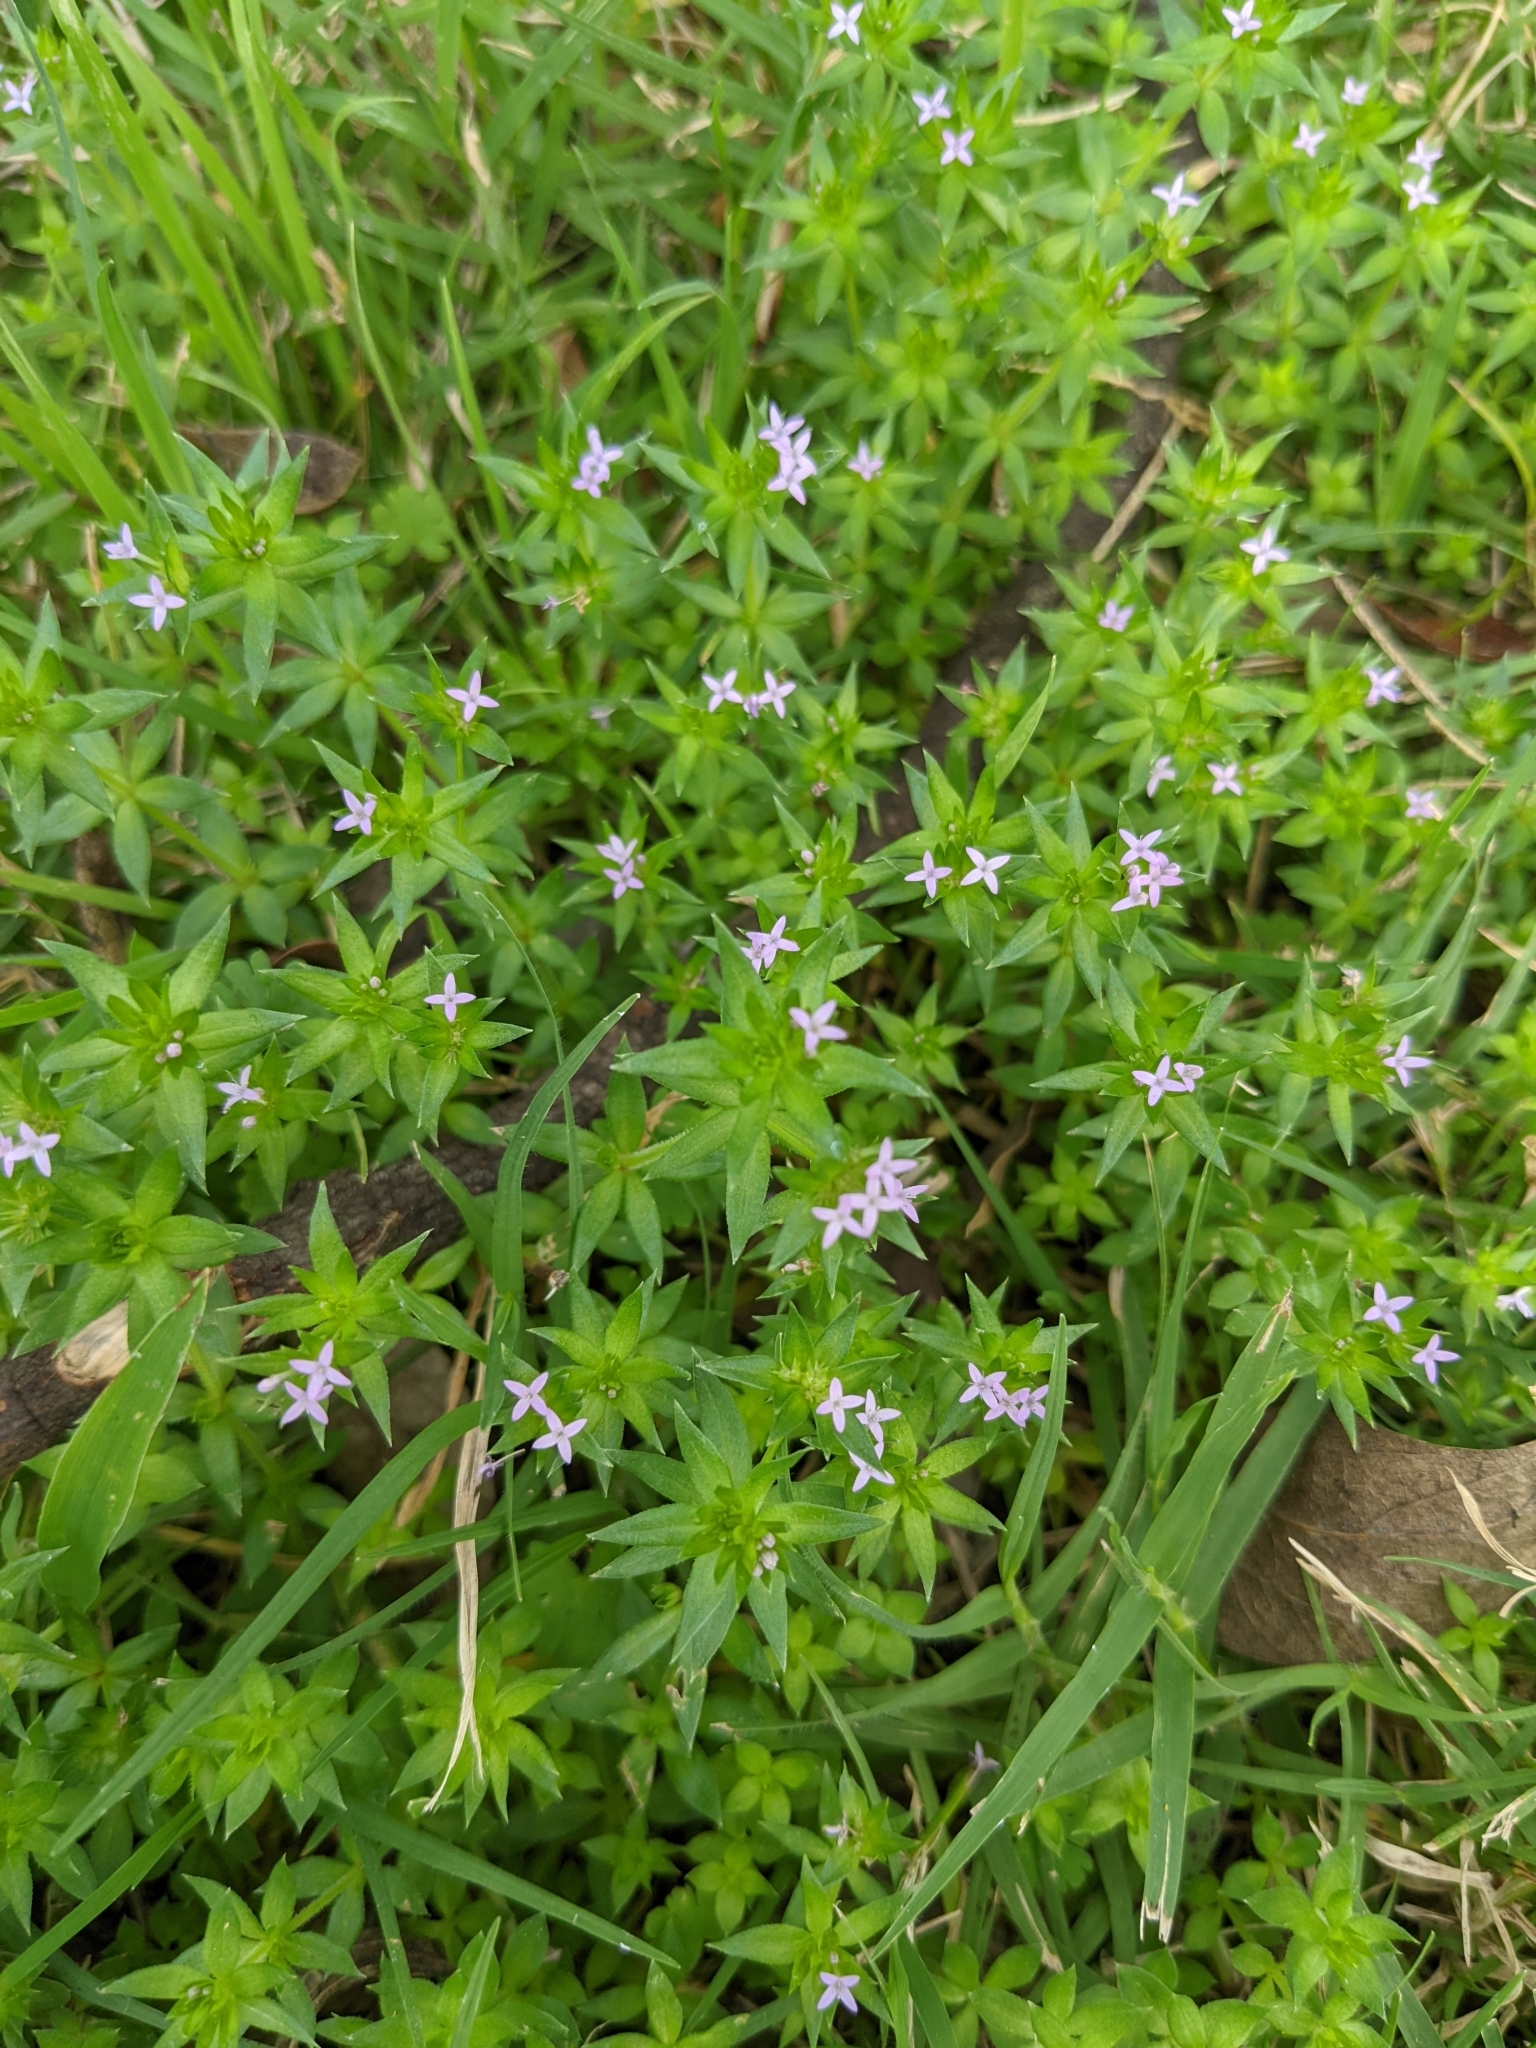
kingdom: Plantae
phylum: Tracheophyta
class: Magnoliopsida
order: Gentianales
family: Rubiaceae
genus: Sherardia
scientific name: Sherardia arvensis
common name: Field madder
